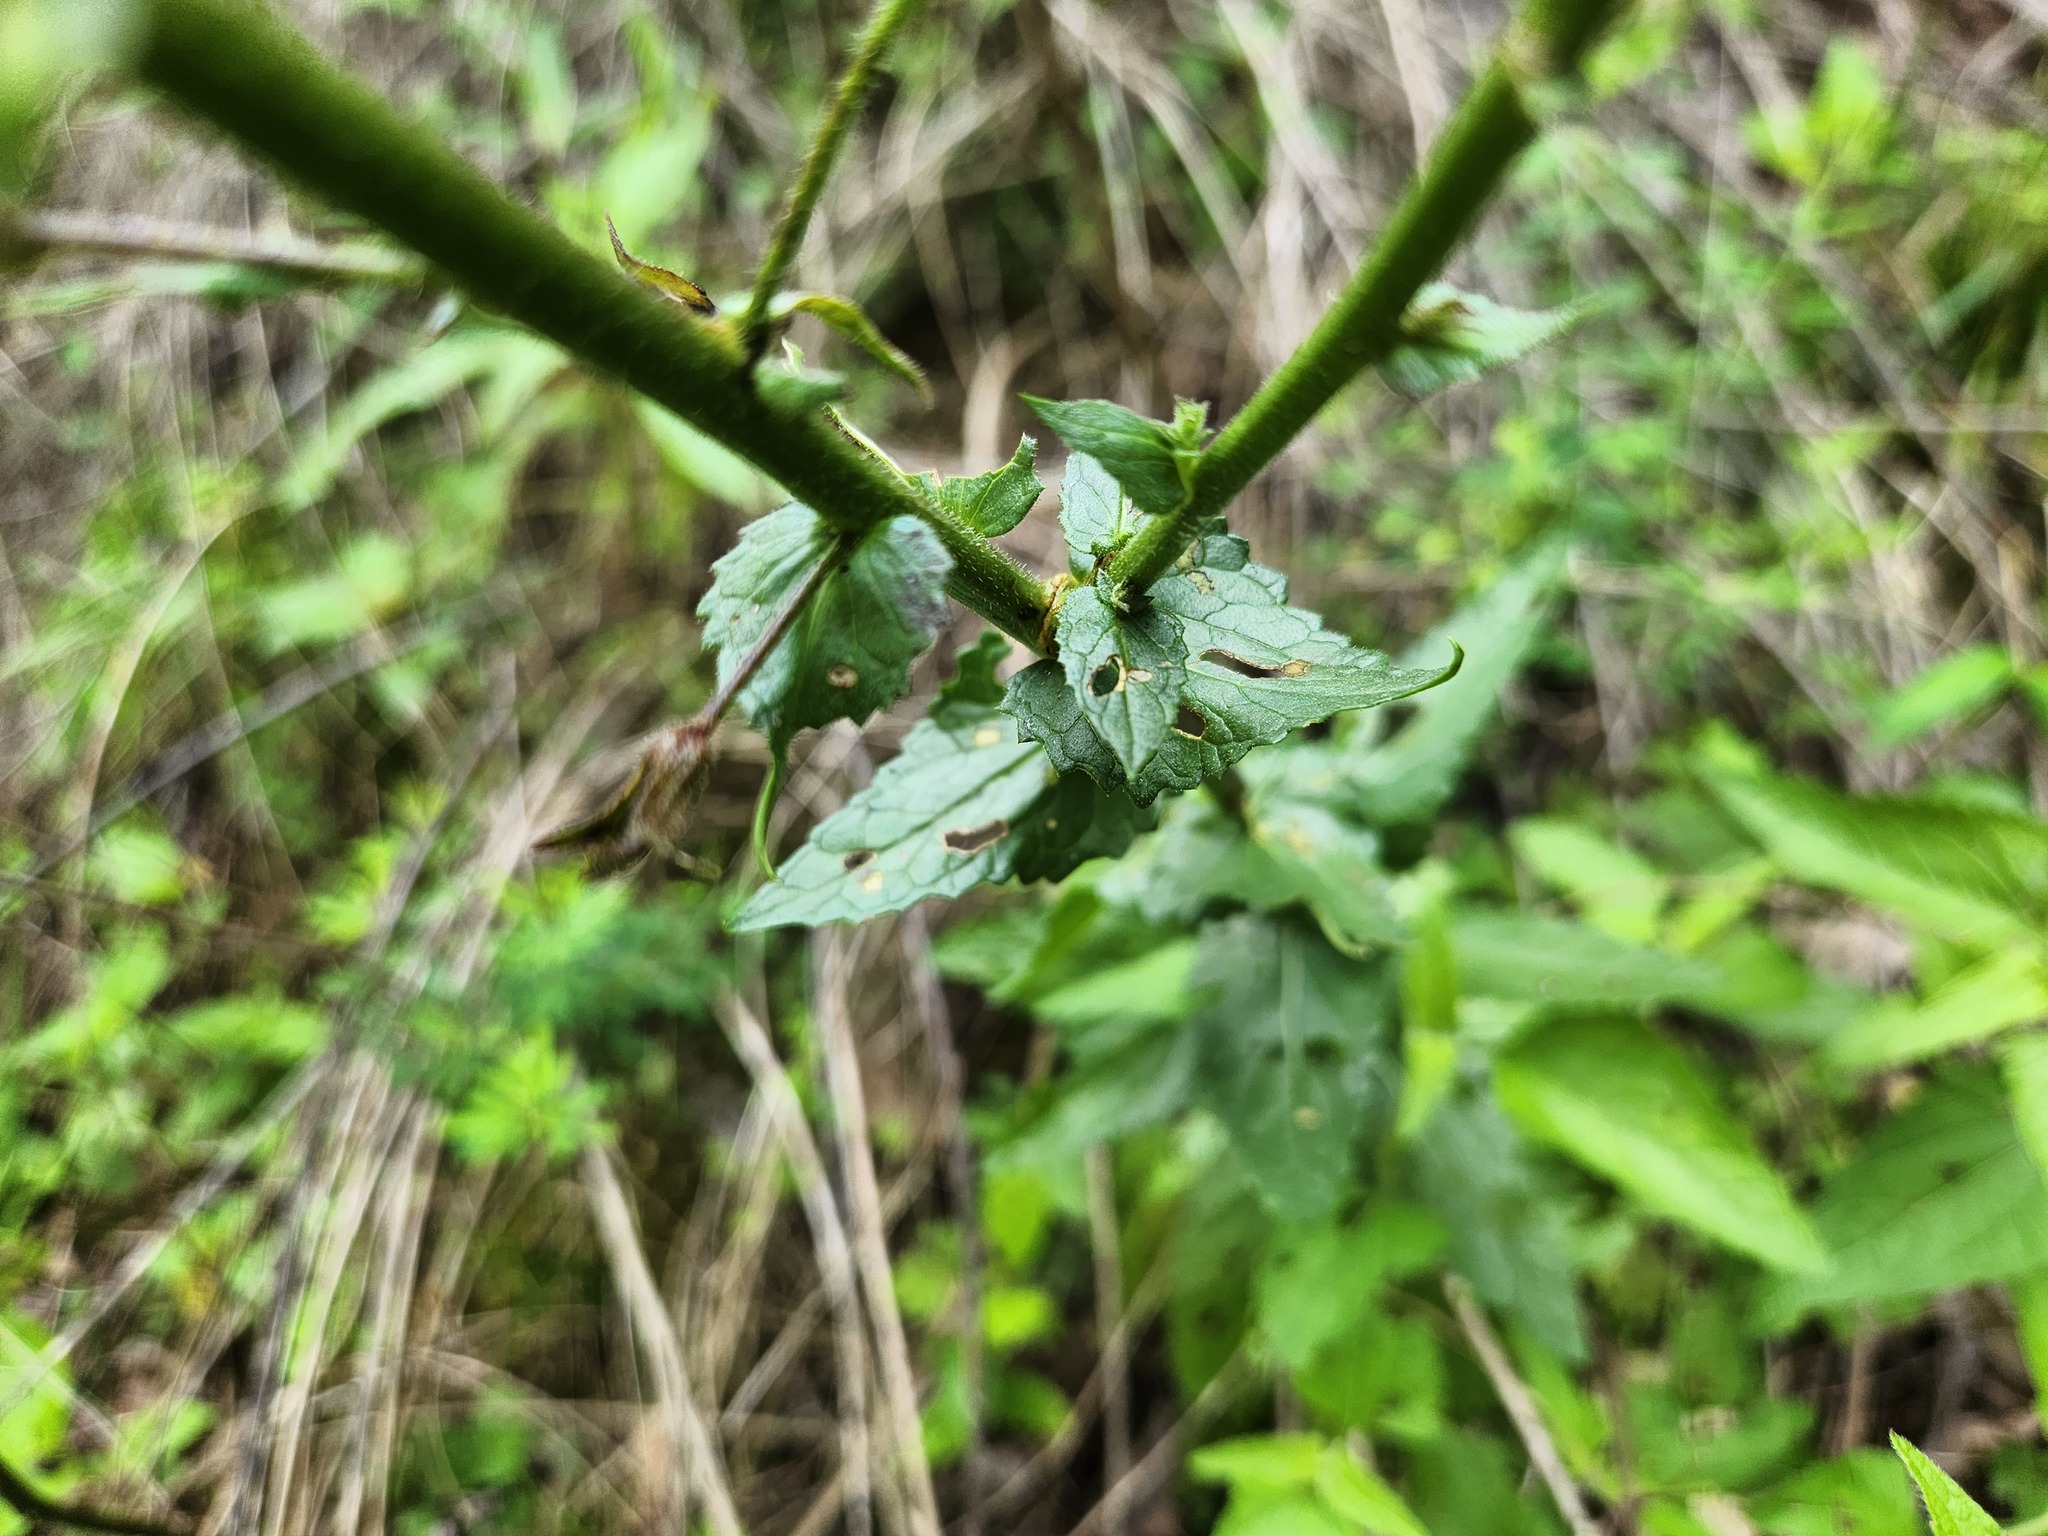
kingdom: Plantae
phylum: Tracheophyta
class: Magnoliopsida
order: Lamiales
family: Scrophulariaceae
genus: Verbascum
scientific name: Verbascum blattaria
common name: Moth mullein
